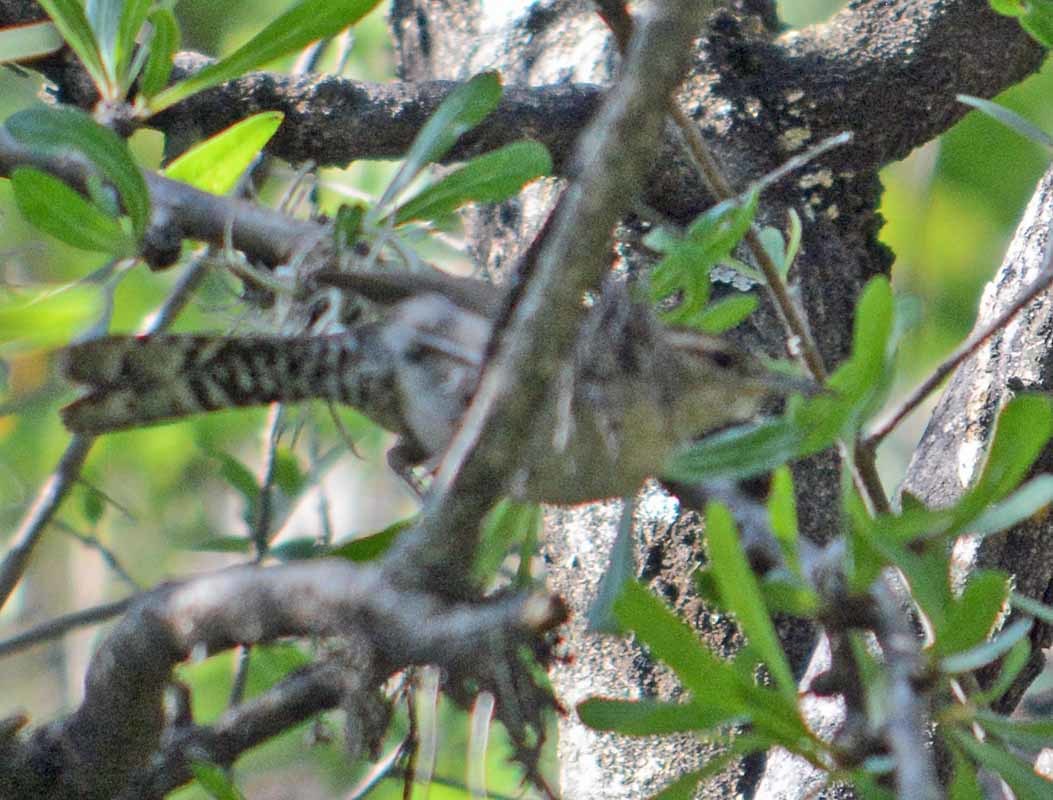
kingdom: Animalia
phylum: Chordata
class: Aves
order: Passeriformes
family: Troglodytidae
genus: Thryomanes
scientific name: Thryomanes bewickii
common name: Bewick's wren
